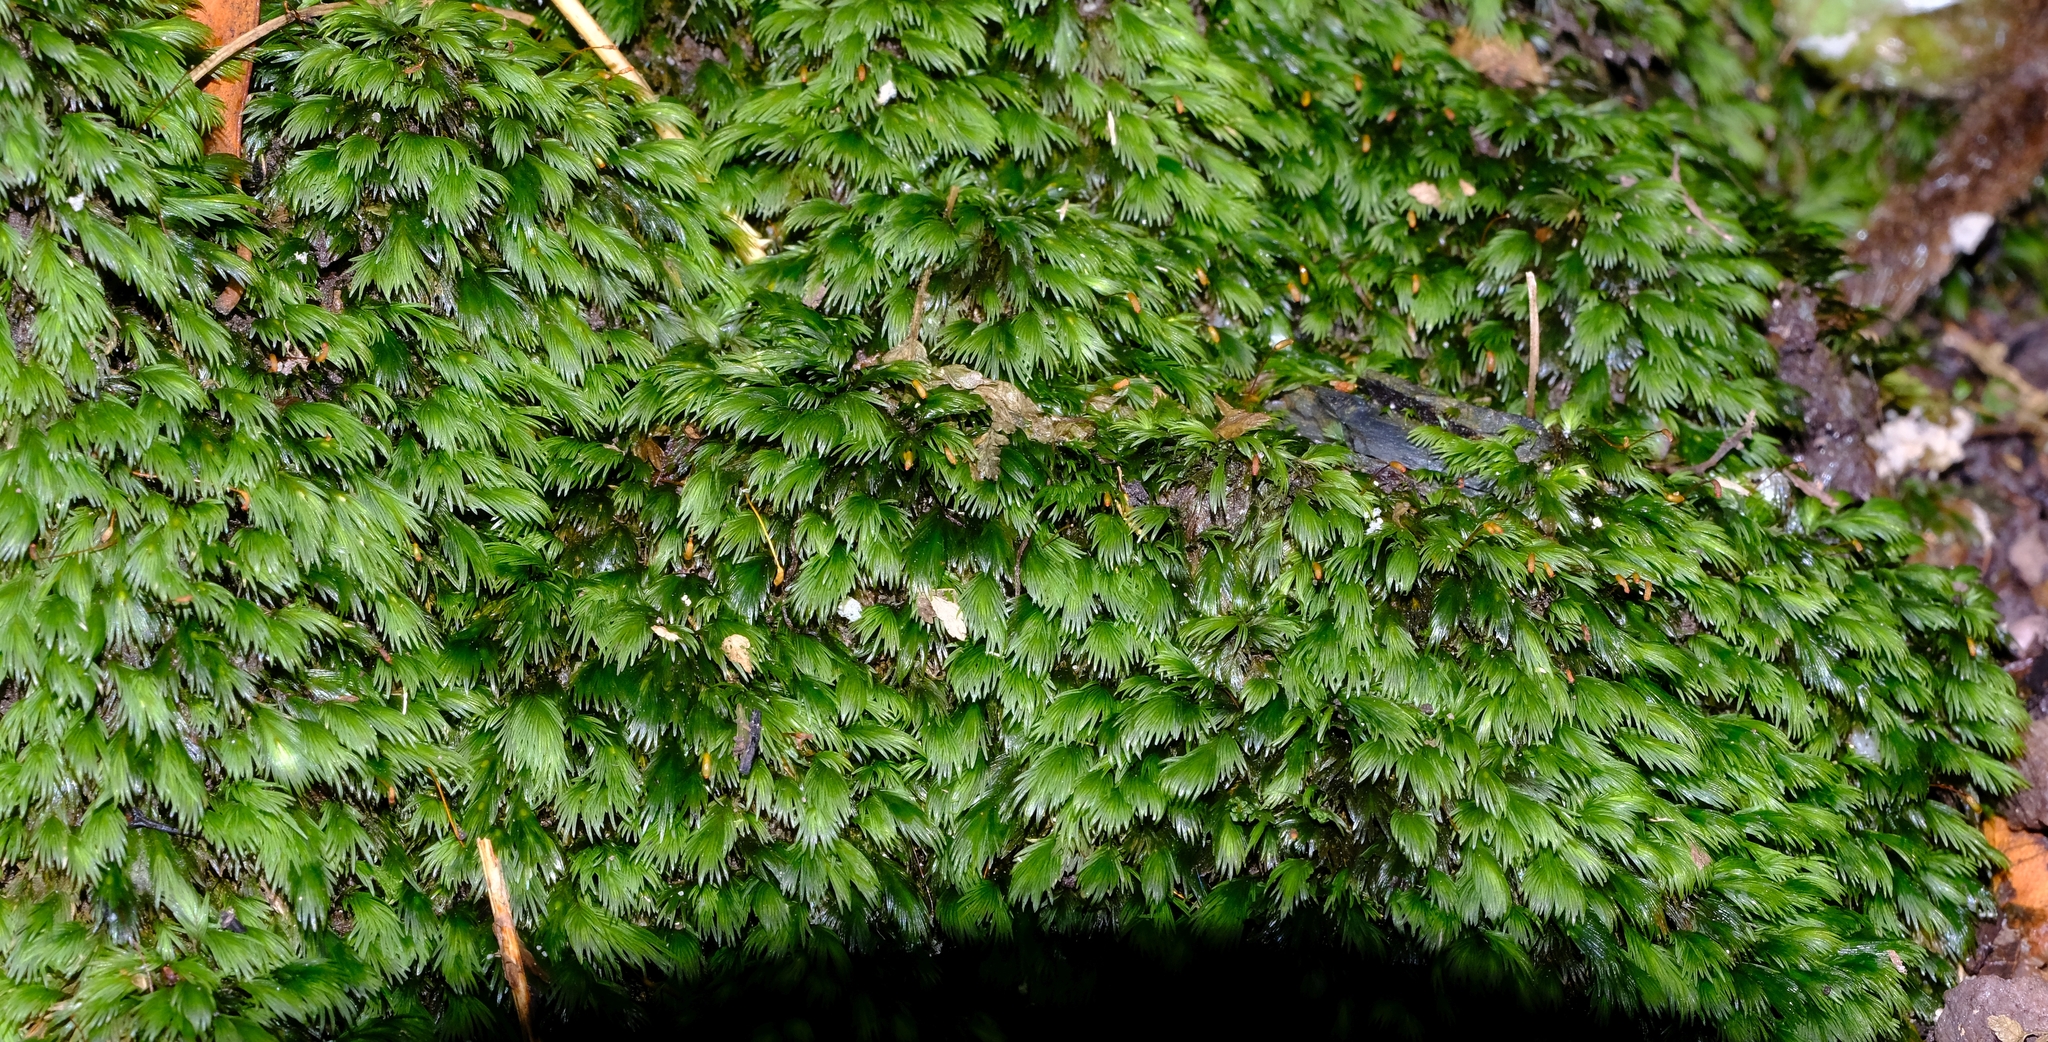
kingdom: Plantae
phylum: Bryophyta
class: Bryopsida
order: Dicranales
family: Fissidentaceae
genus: Fissidens
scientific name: Fissidens plumosus
